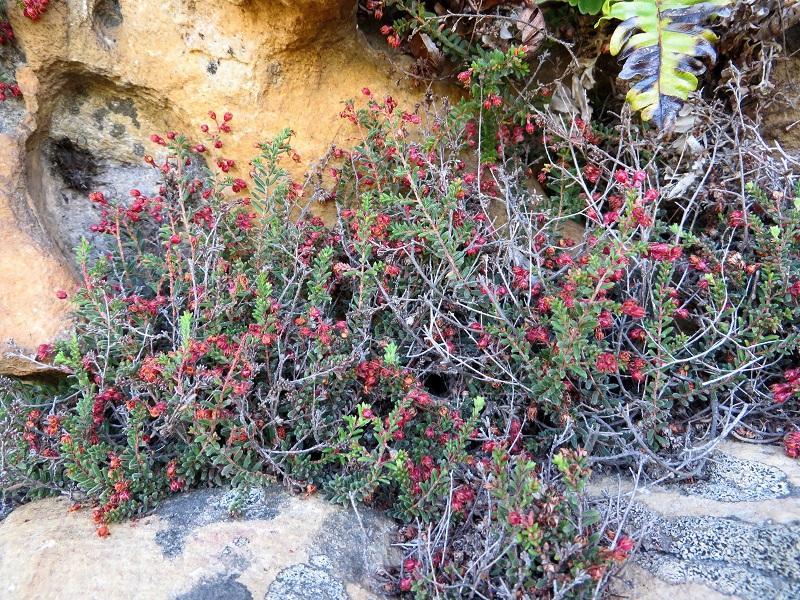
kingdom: Plantae
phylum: Tracheophyta
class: Magnoliopsida
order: Ericales
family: Ericaceae
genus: Erica
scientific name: Erica oreophila
